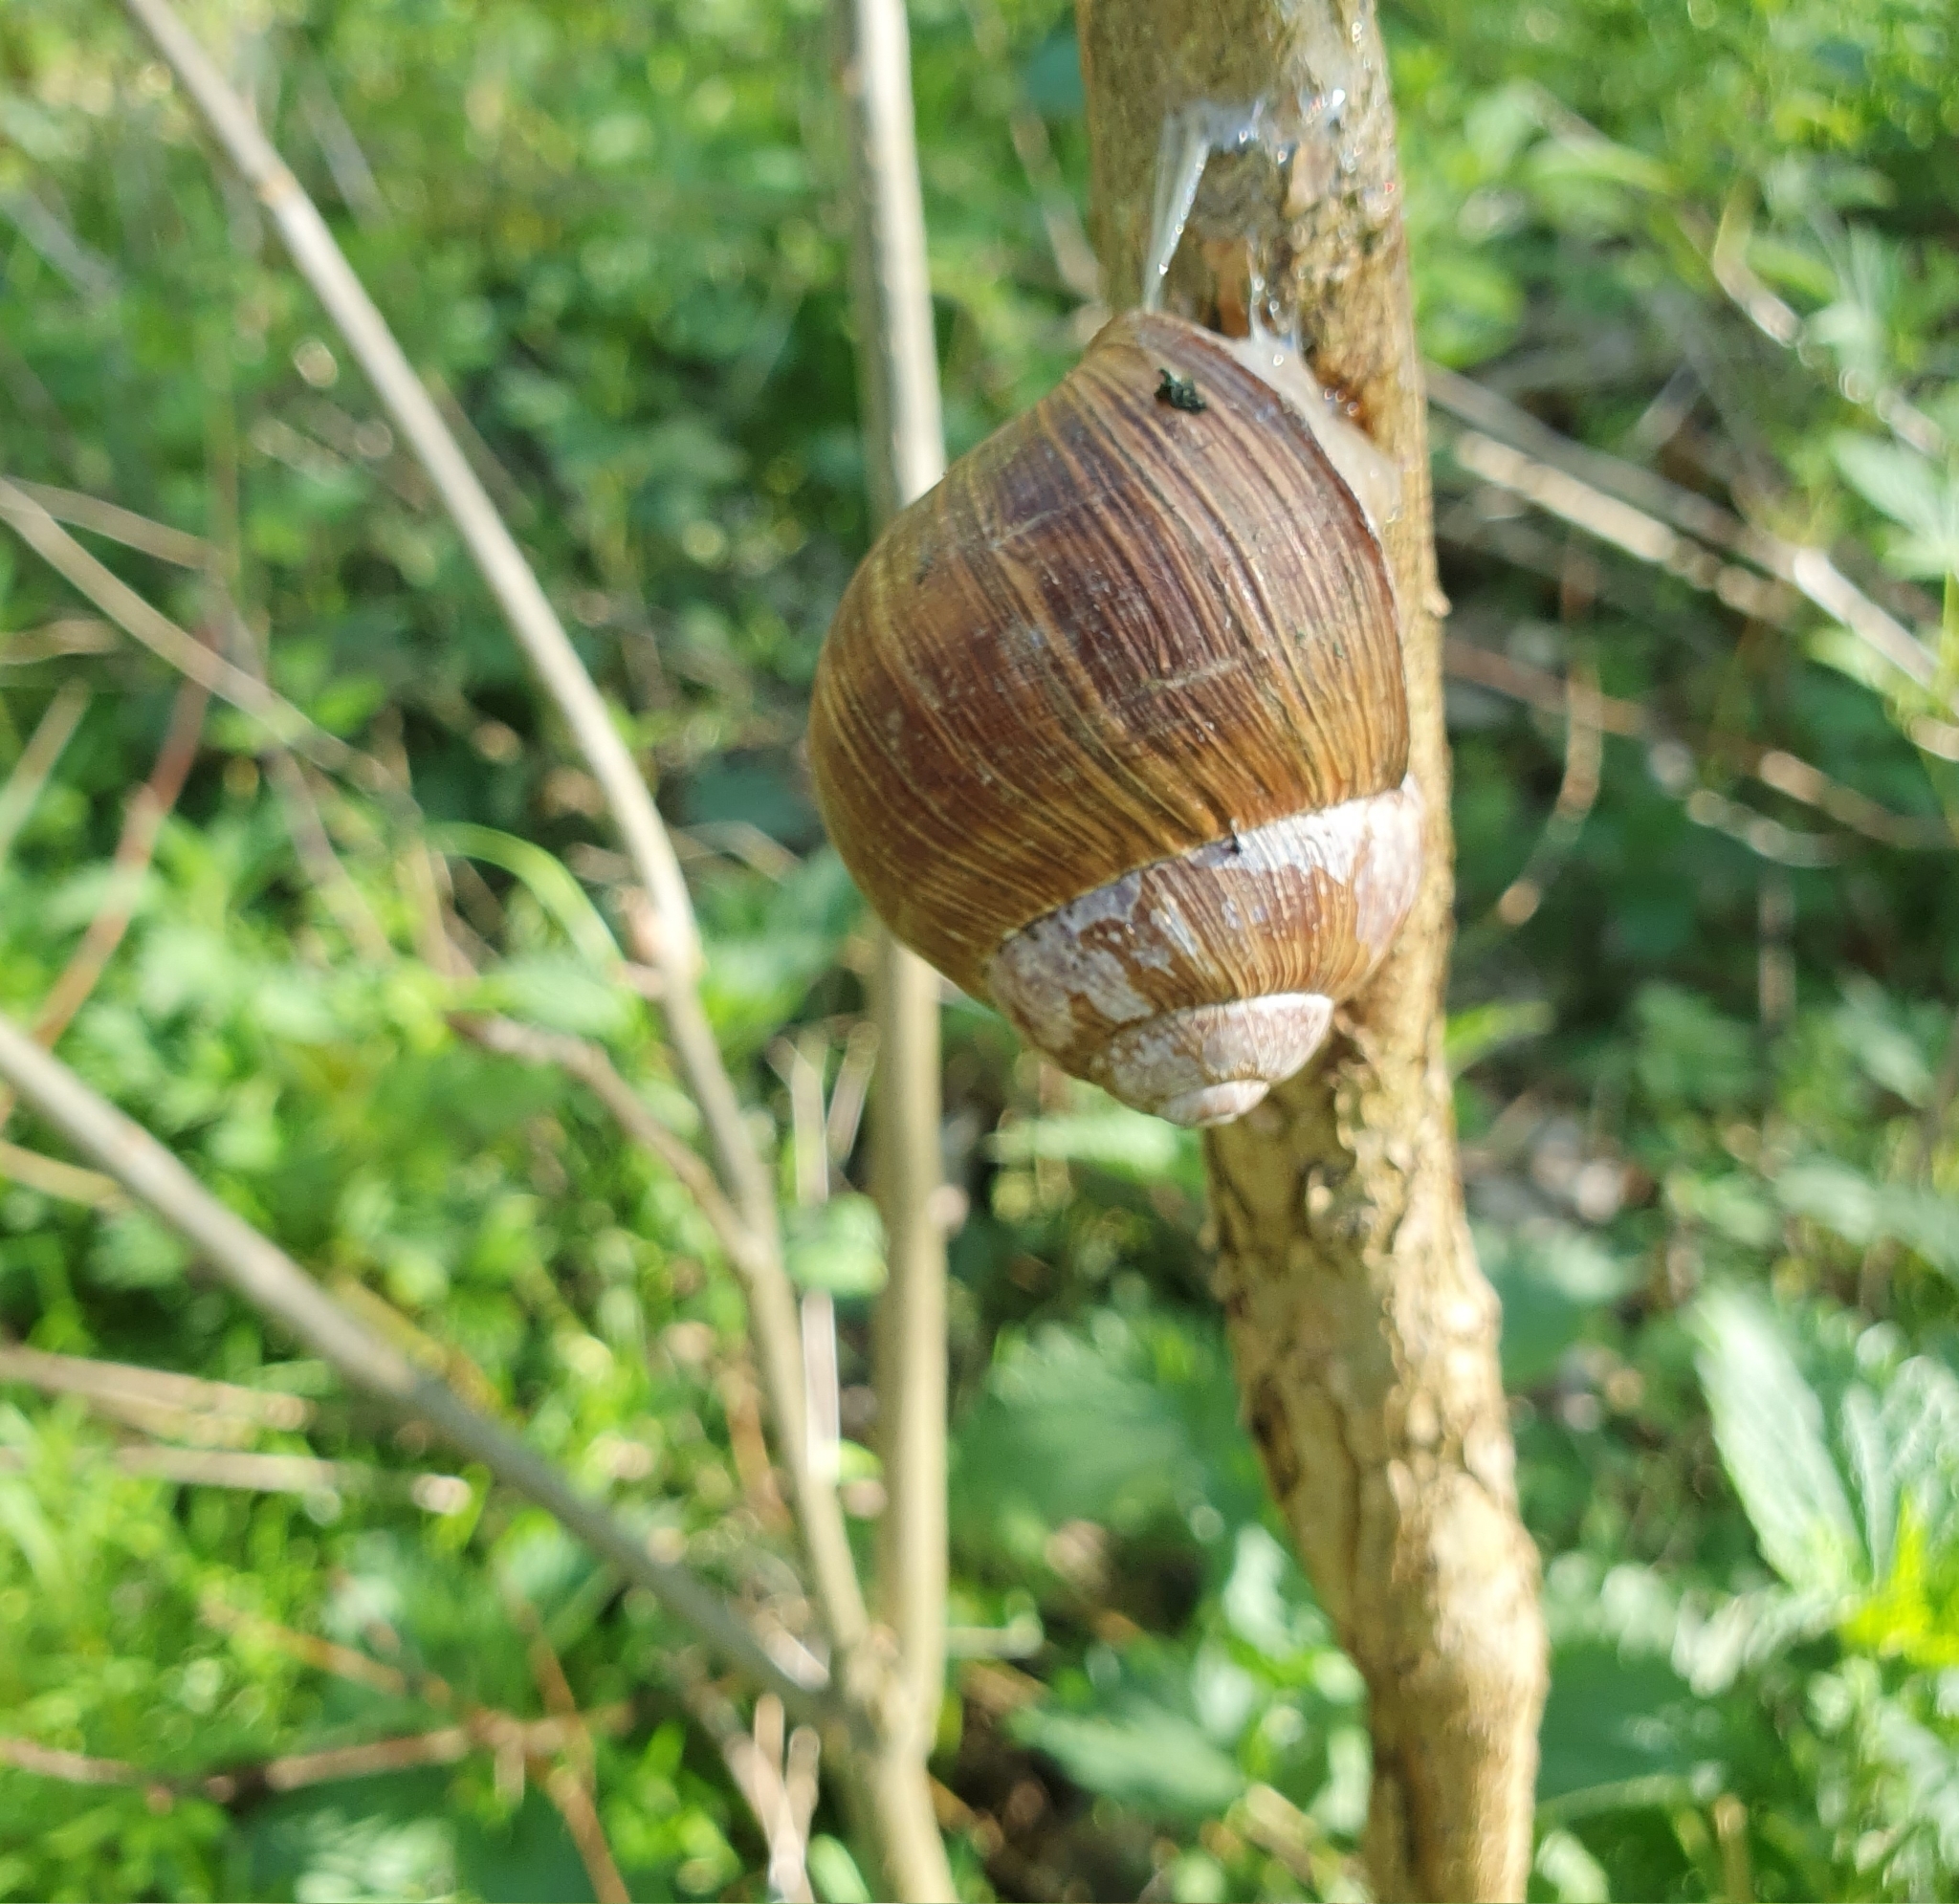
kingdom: Animalia
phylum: Mollusca
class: Gastropoda
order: Stylommatophora
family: Helicidae
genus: Helix
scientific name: Helix pomatia
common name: Roman snail
